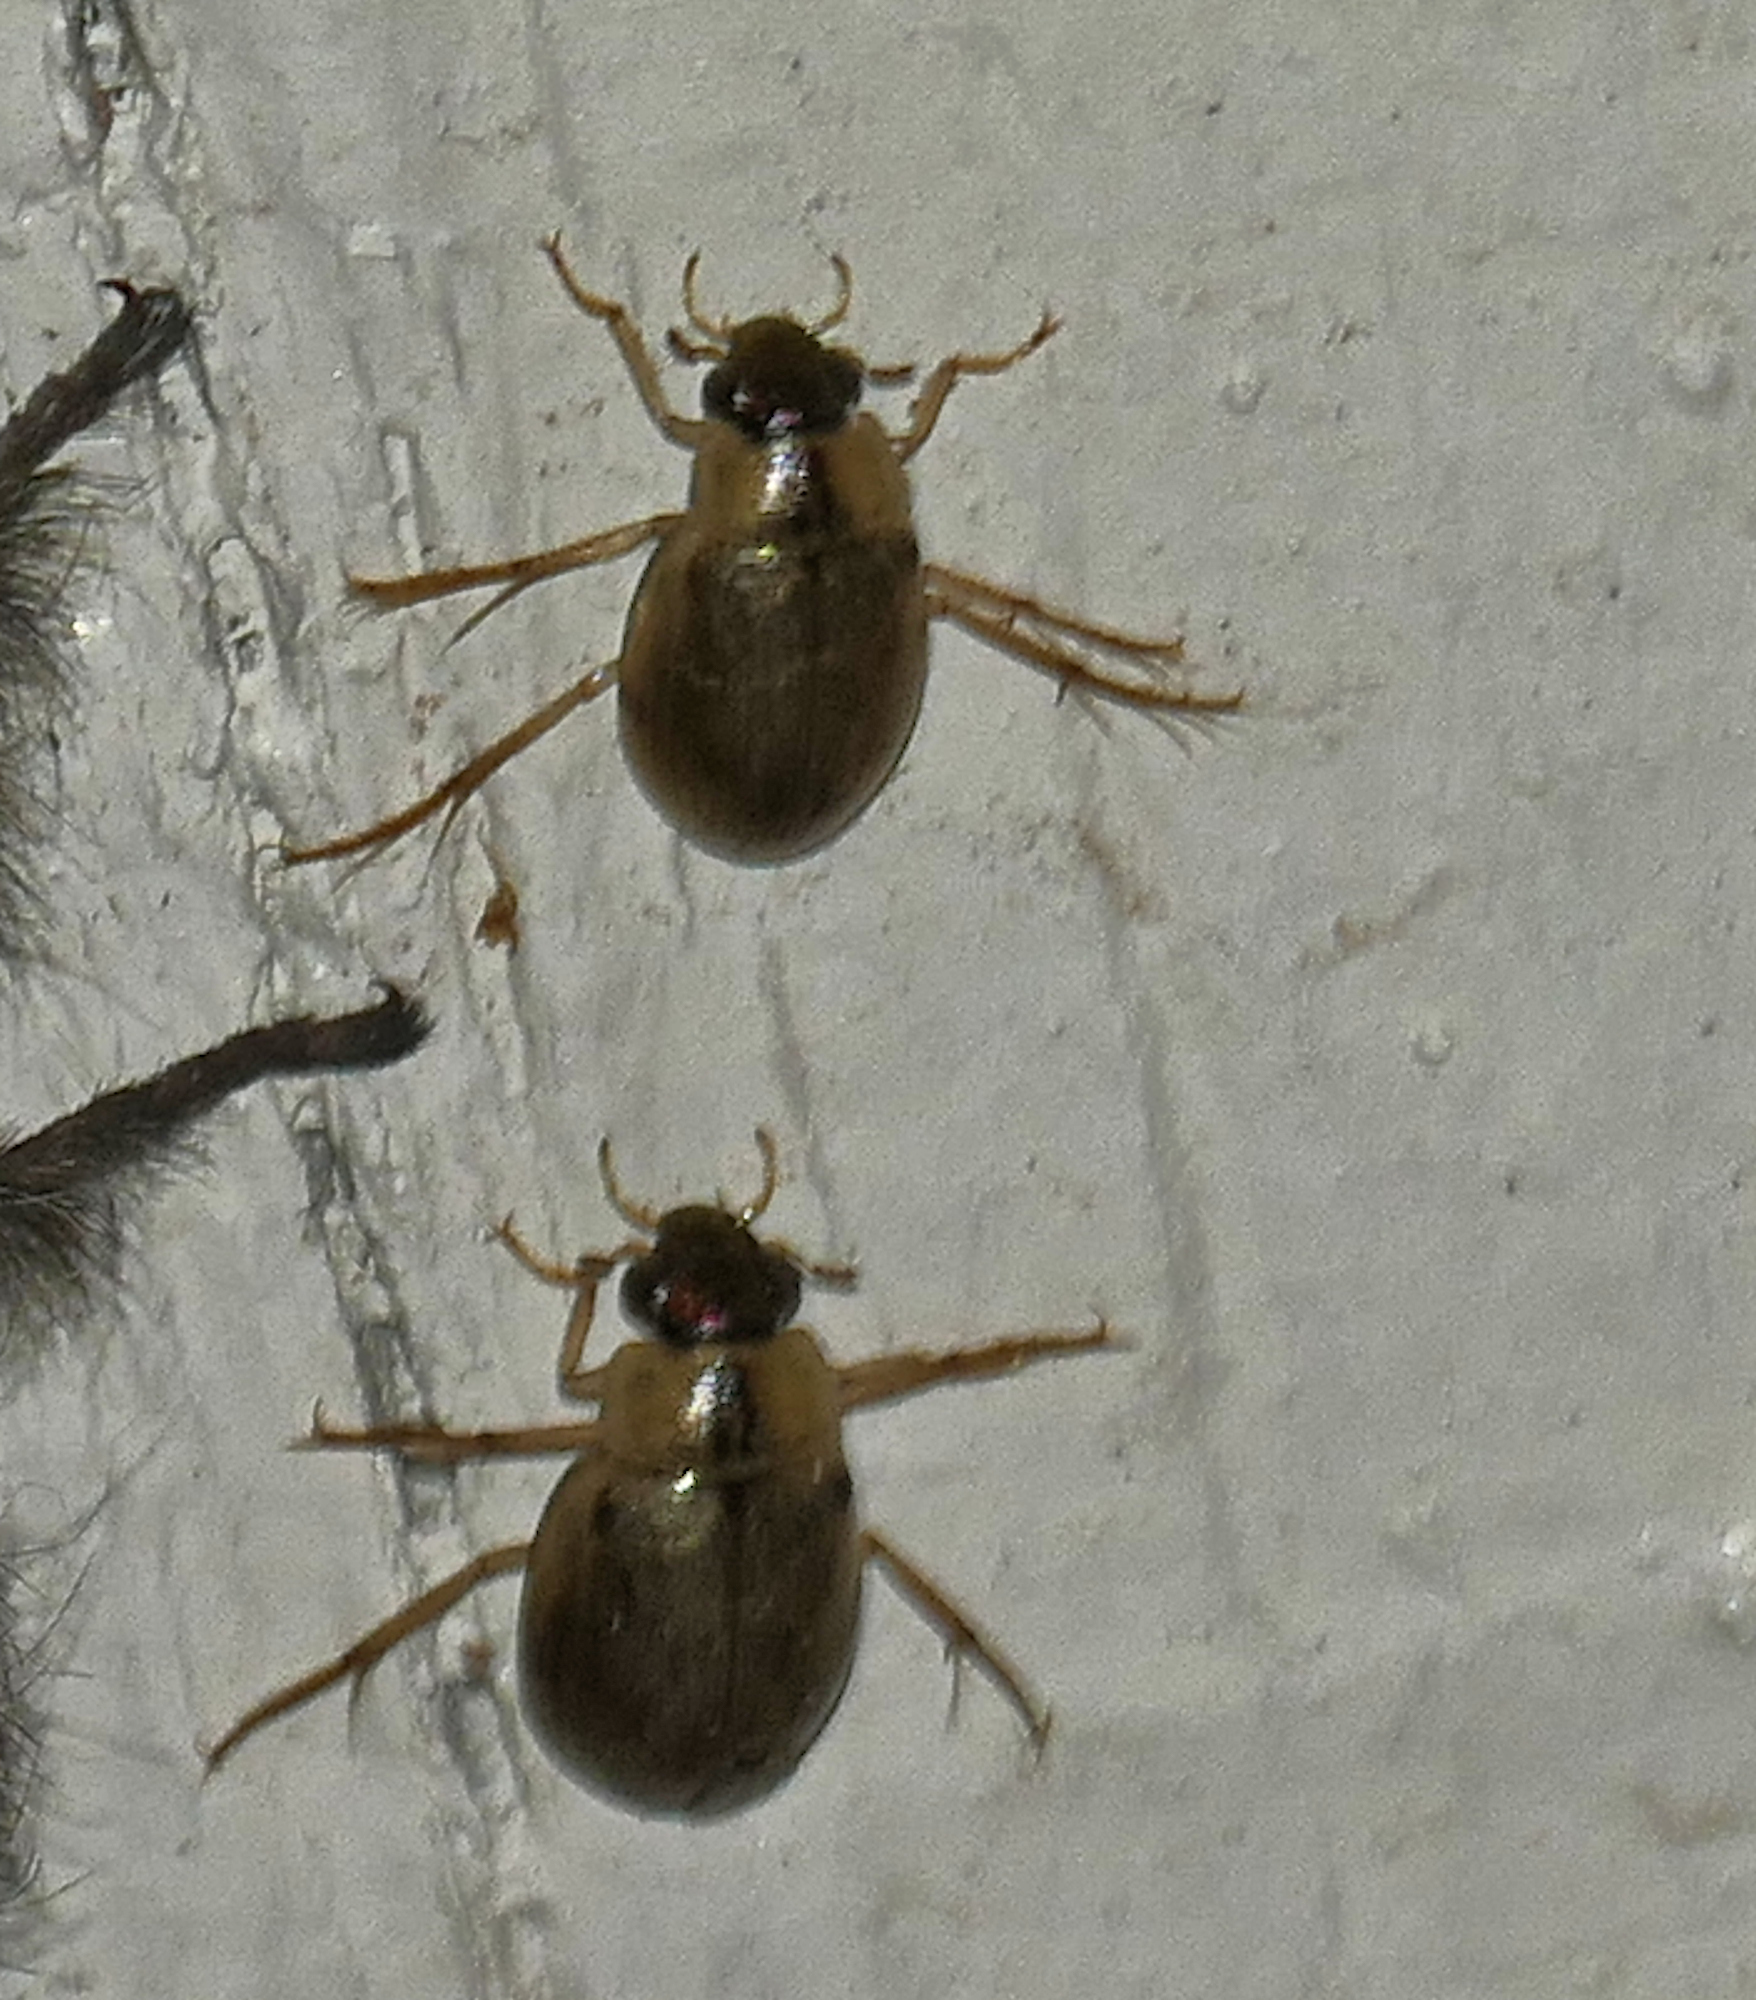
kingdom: Animalia
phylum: Arthropoda
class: Insecta
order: Coleoptera
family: Hydrophilidae
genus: Berosus
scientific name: Berosus
